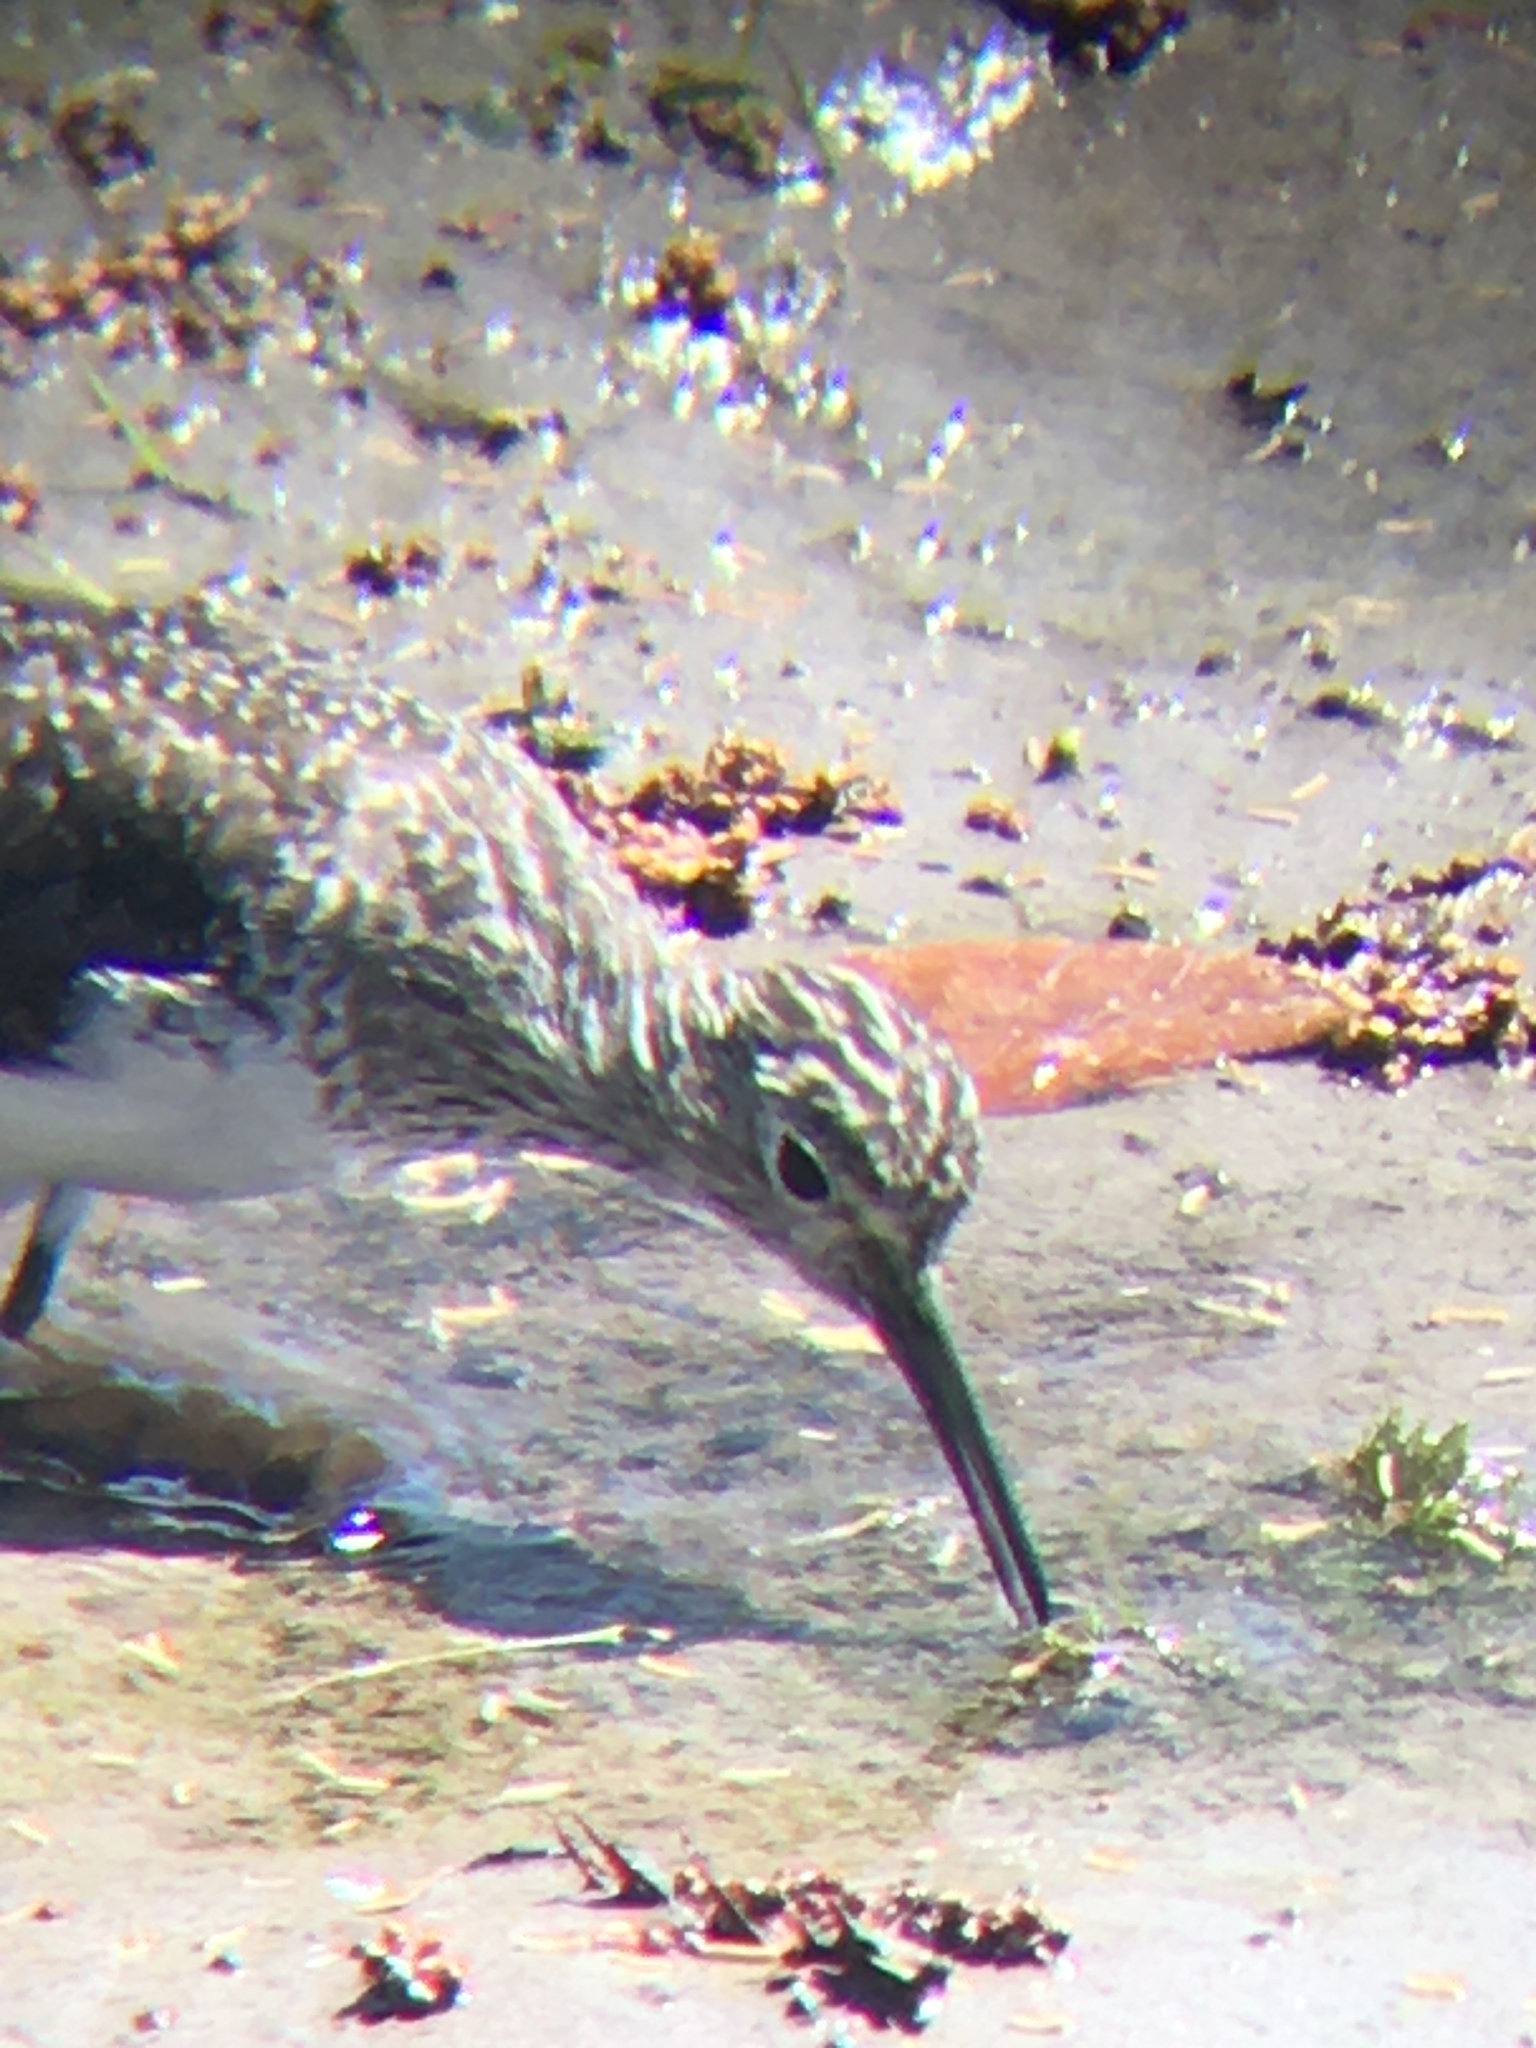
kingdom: Animalia
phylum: Chordata
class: Aves
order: Charadriiformes
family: Scolopacidae
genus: Tringa
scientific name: Tringa solitaria
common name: Solitary sandpiper
